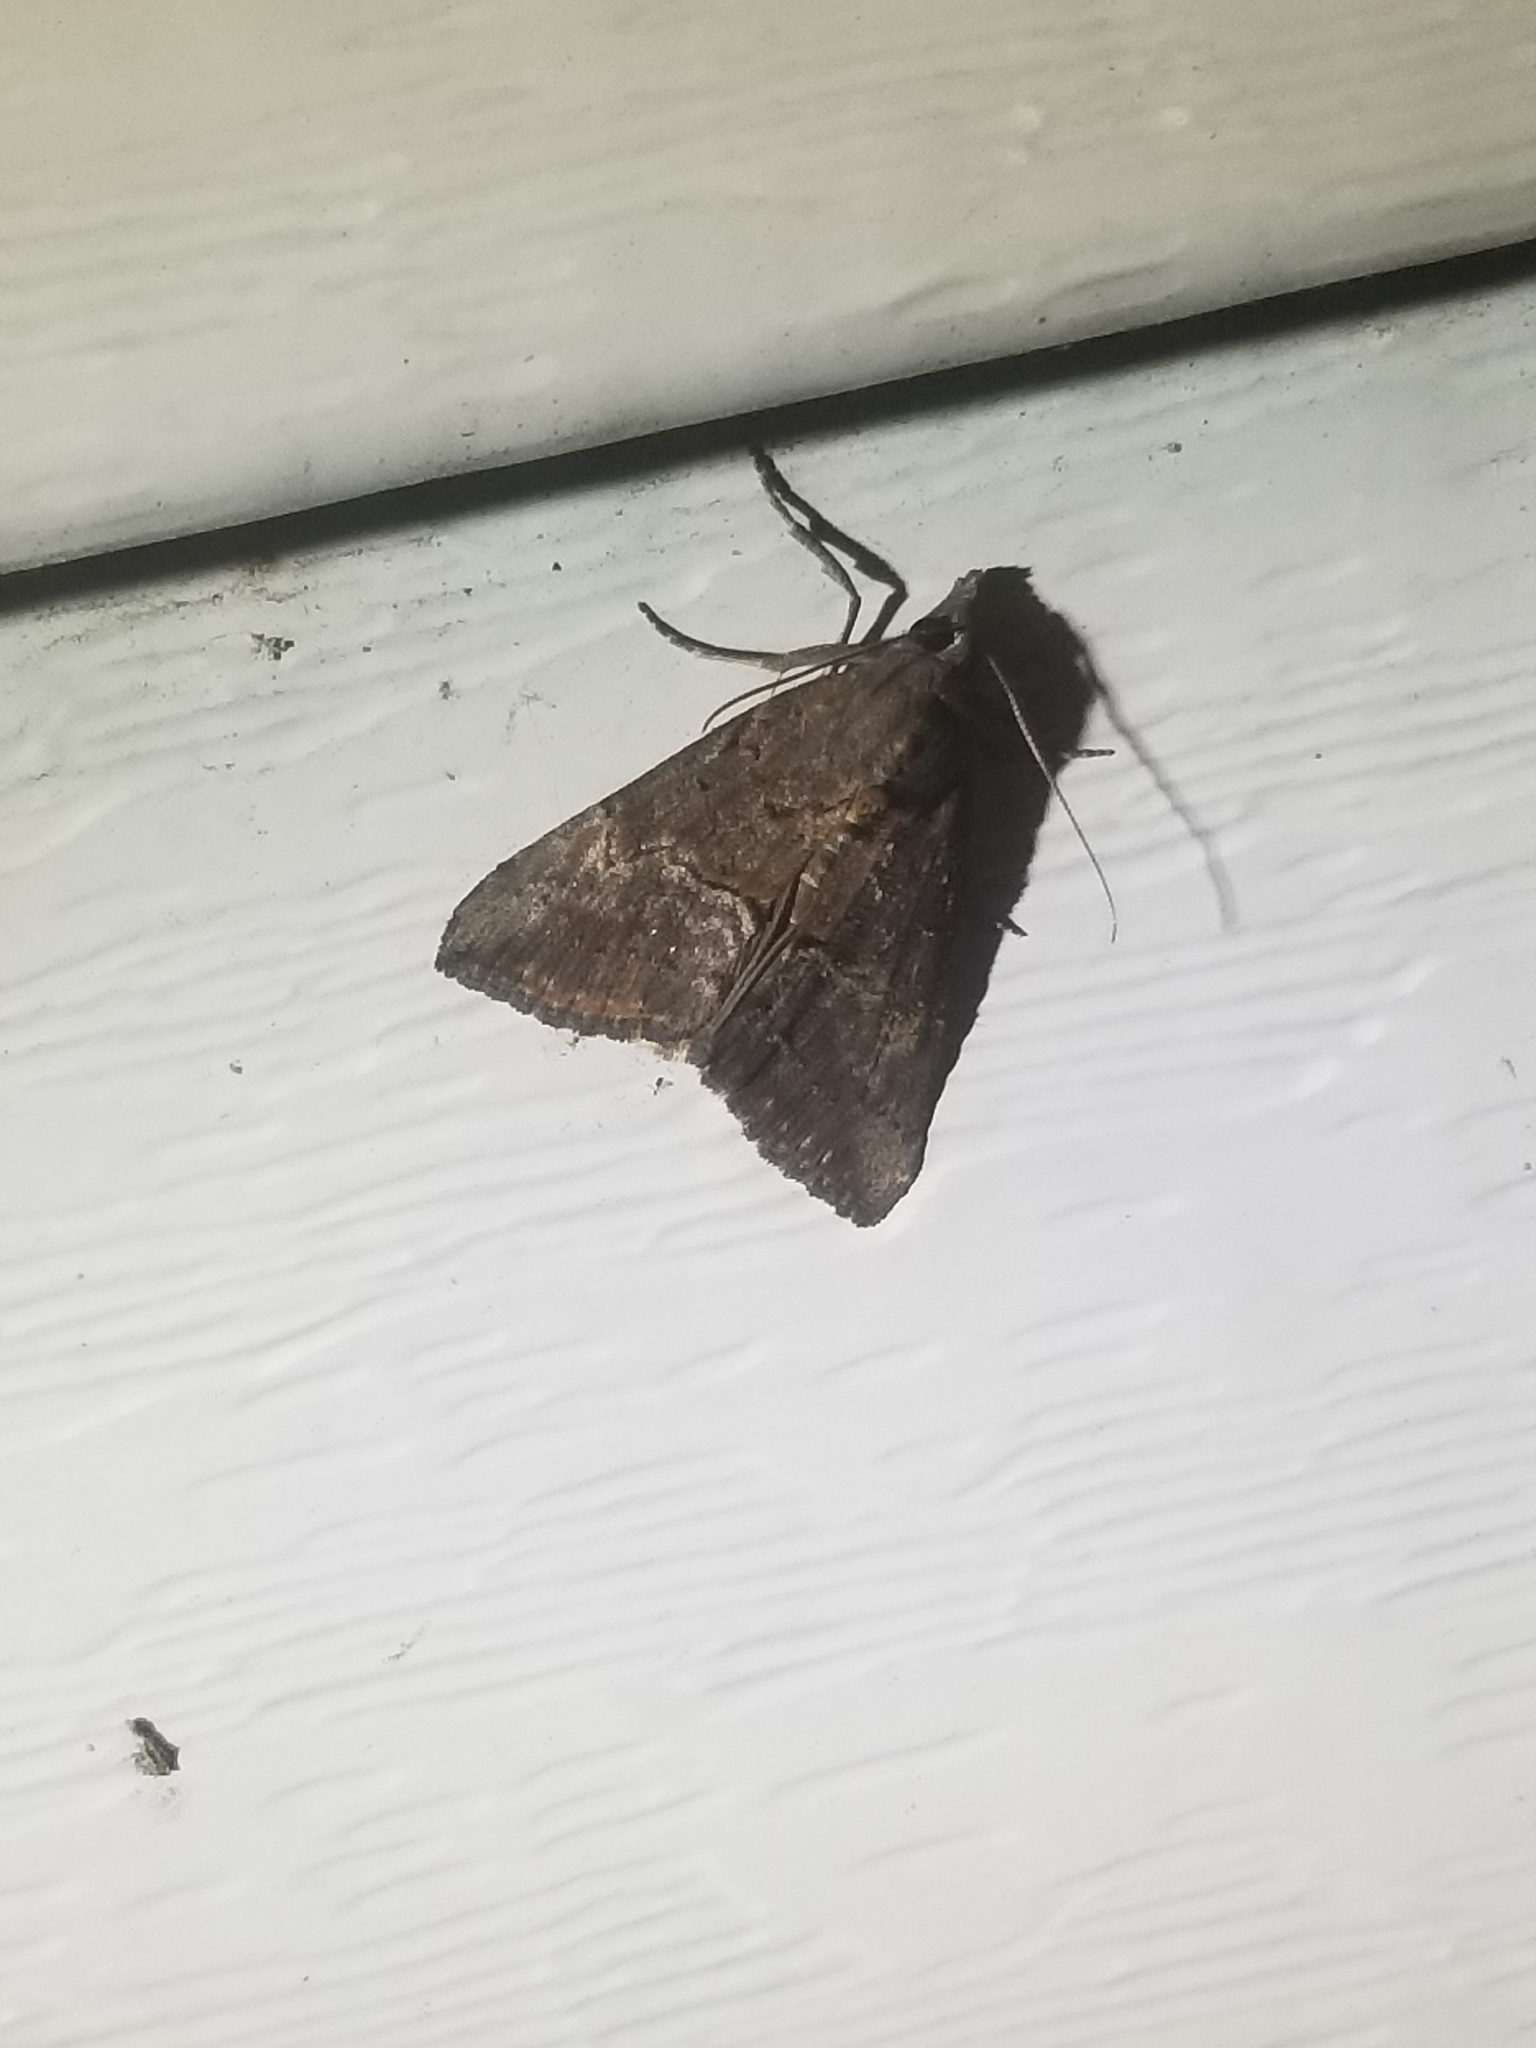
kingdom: Animalia
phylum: Arthropoda
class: Insecta
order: Lepidoptera
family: Erebidae
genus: Hypena
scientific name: Hypena scabra
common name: Green cloverworm
